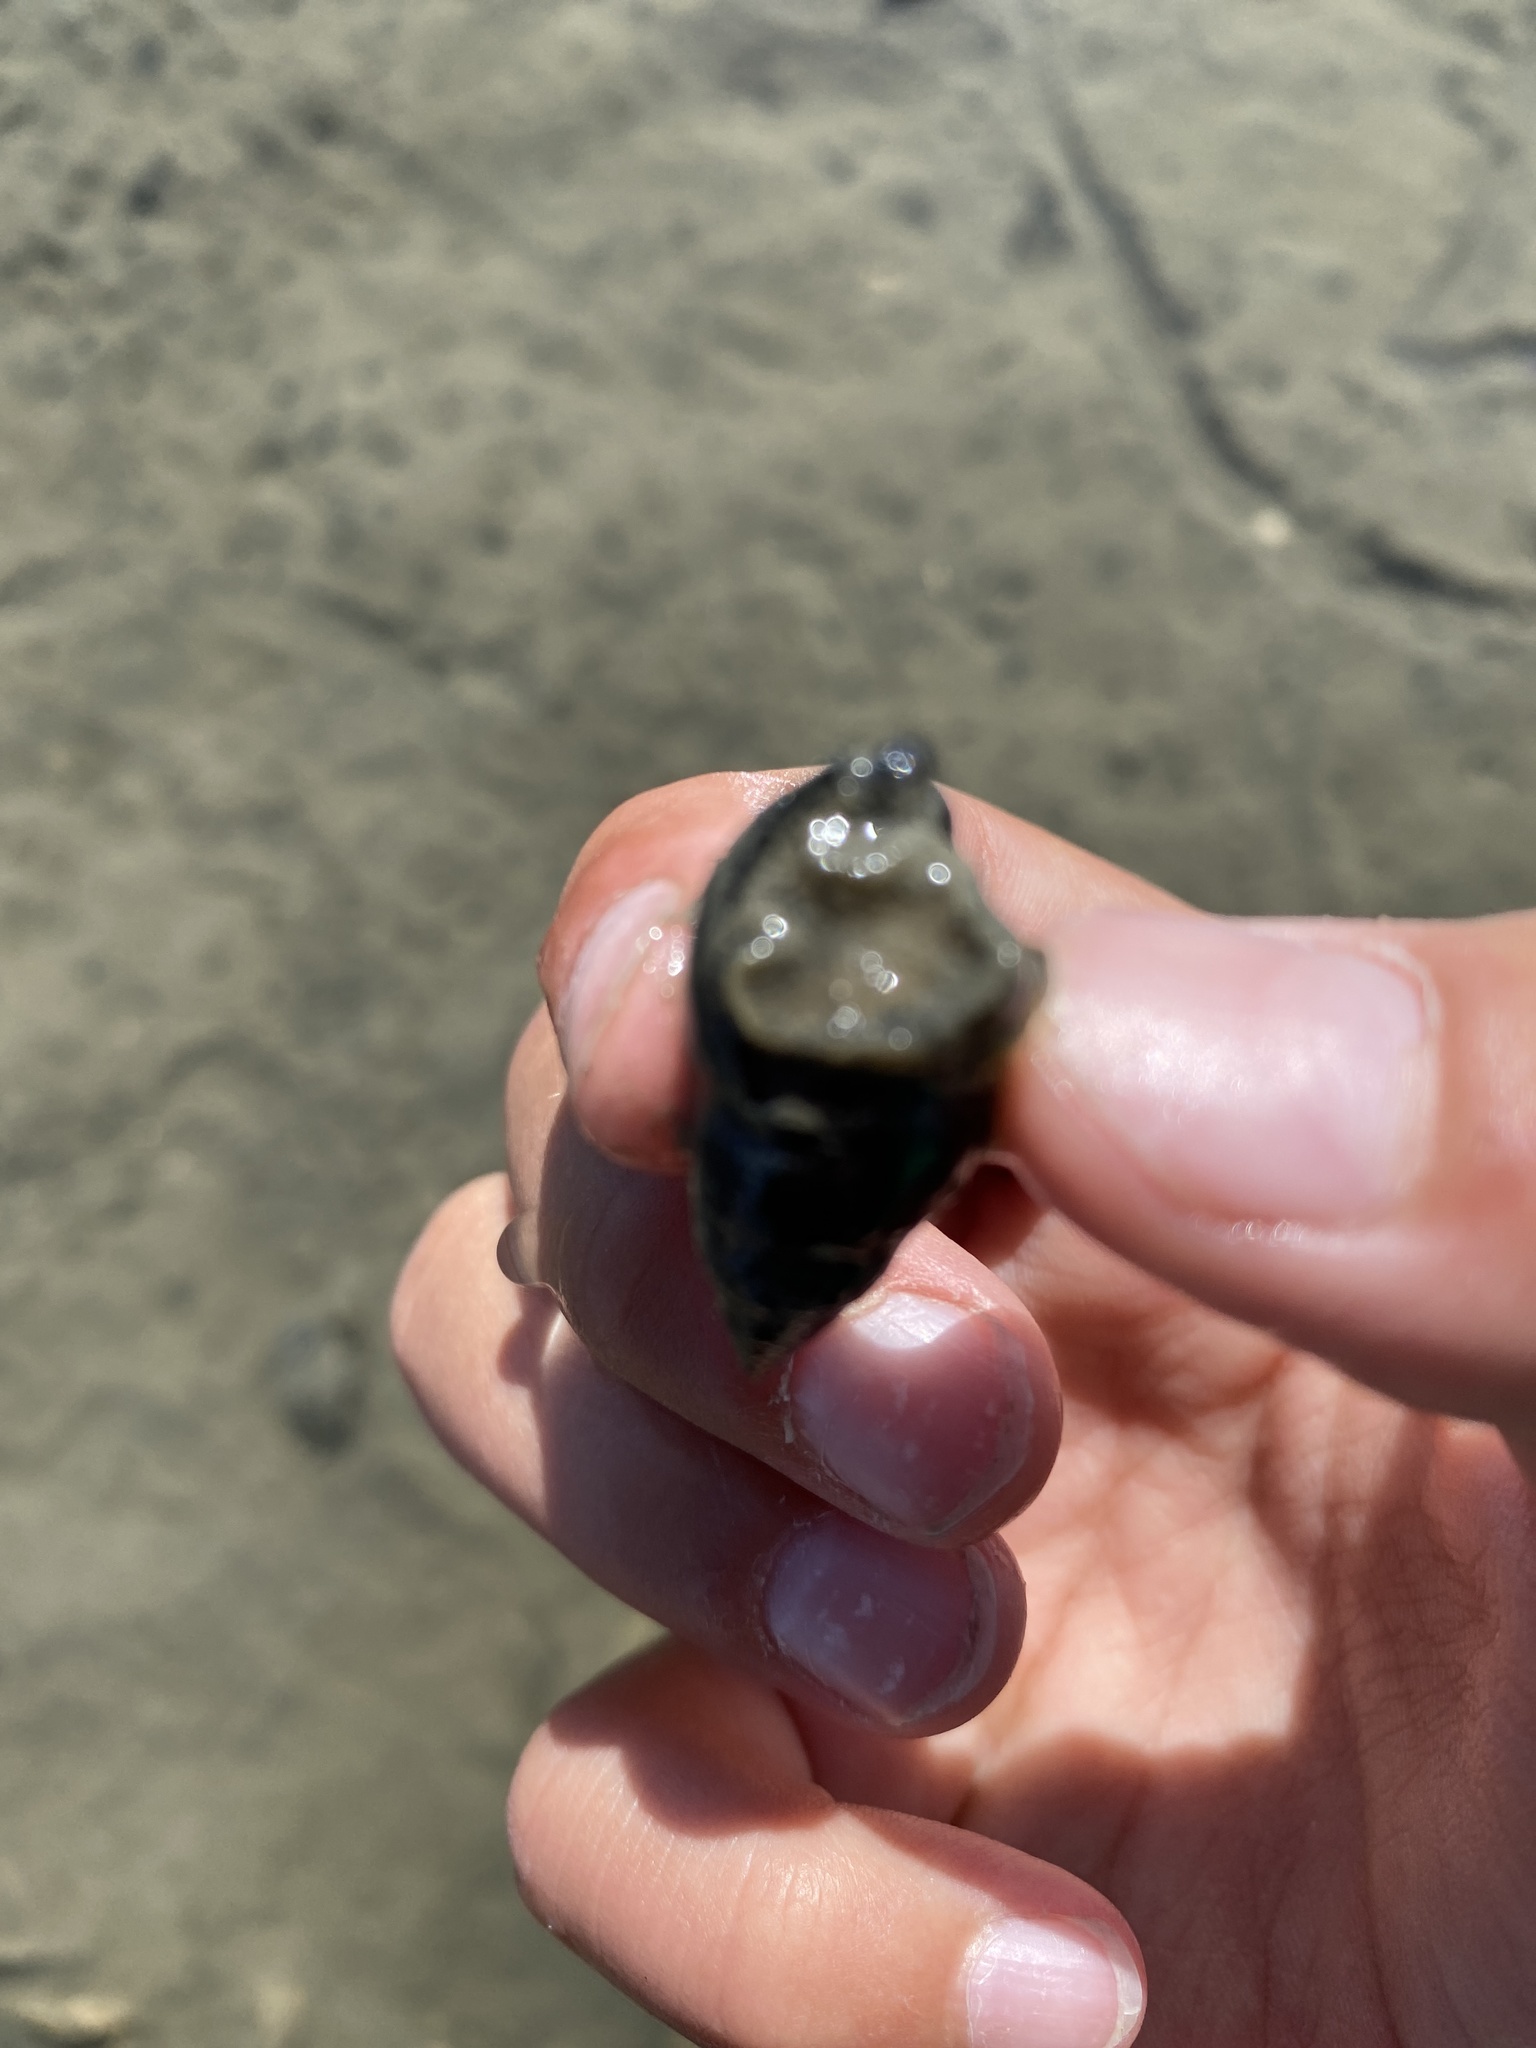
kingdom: Animalia
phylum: Mollusca
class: Gastropoda
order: Neogastropoda
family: Nassariidae
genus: Ilyanassa
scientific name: Ilyanassa obsoleta
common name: Eastern mudsnail
